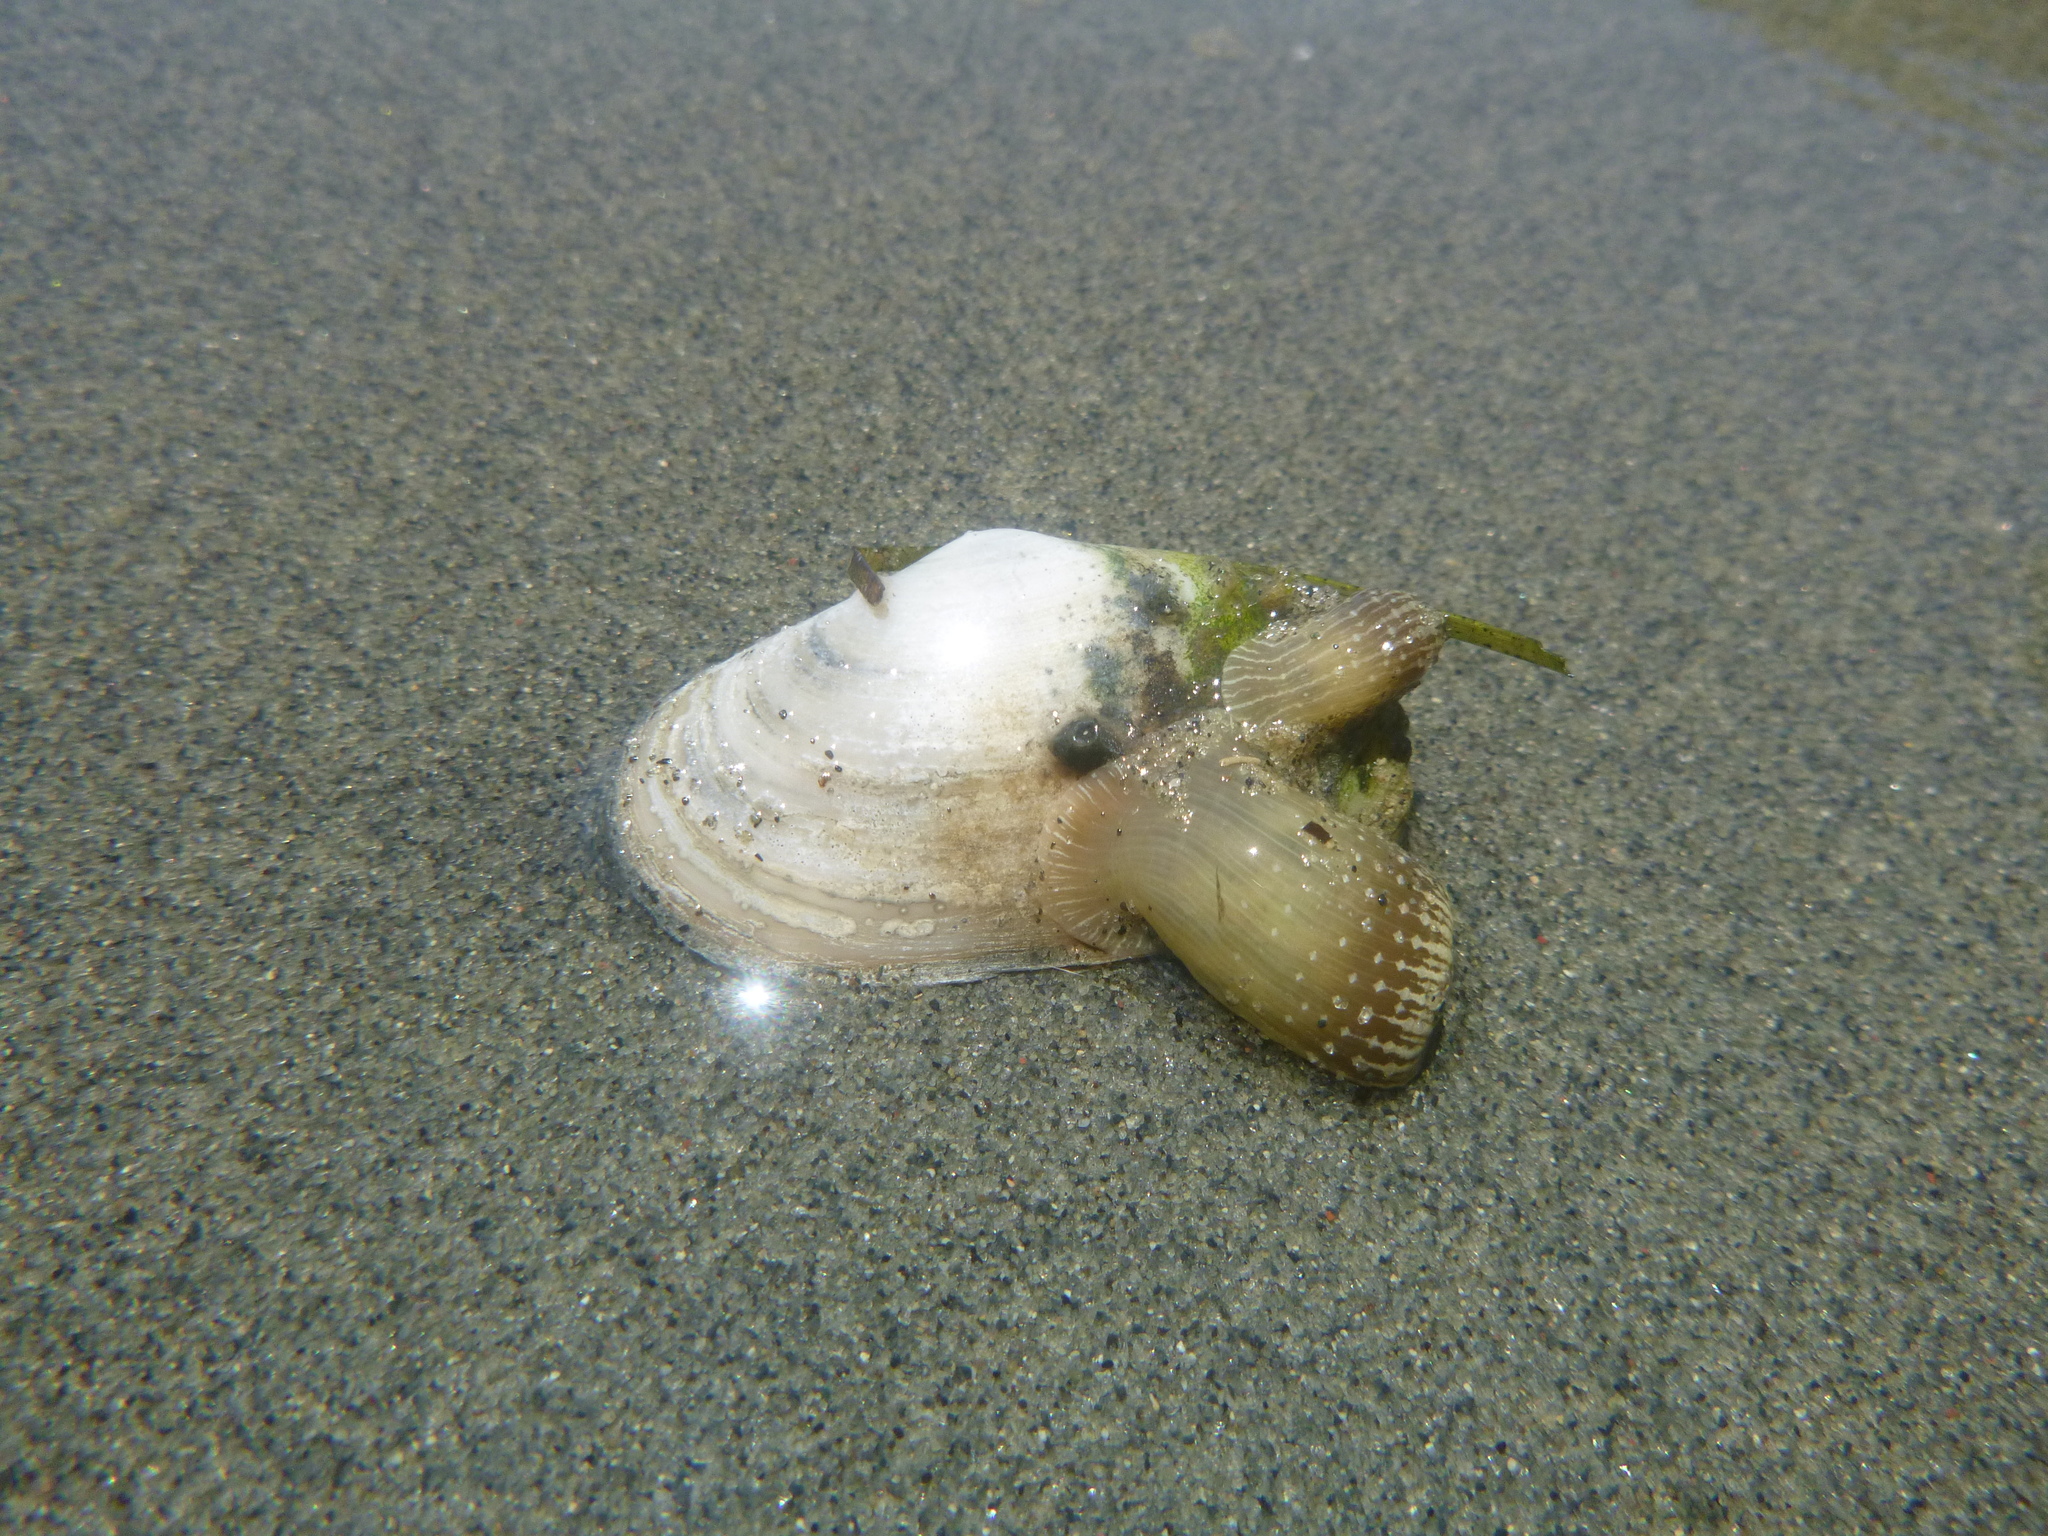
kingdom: Animalia
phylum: Cnidaria
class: Anthozoa
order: Actiniaria
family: Actiniidae
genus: Anthopleura
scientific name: Anthopleura hermaphroditica
